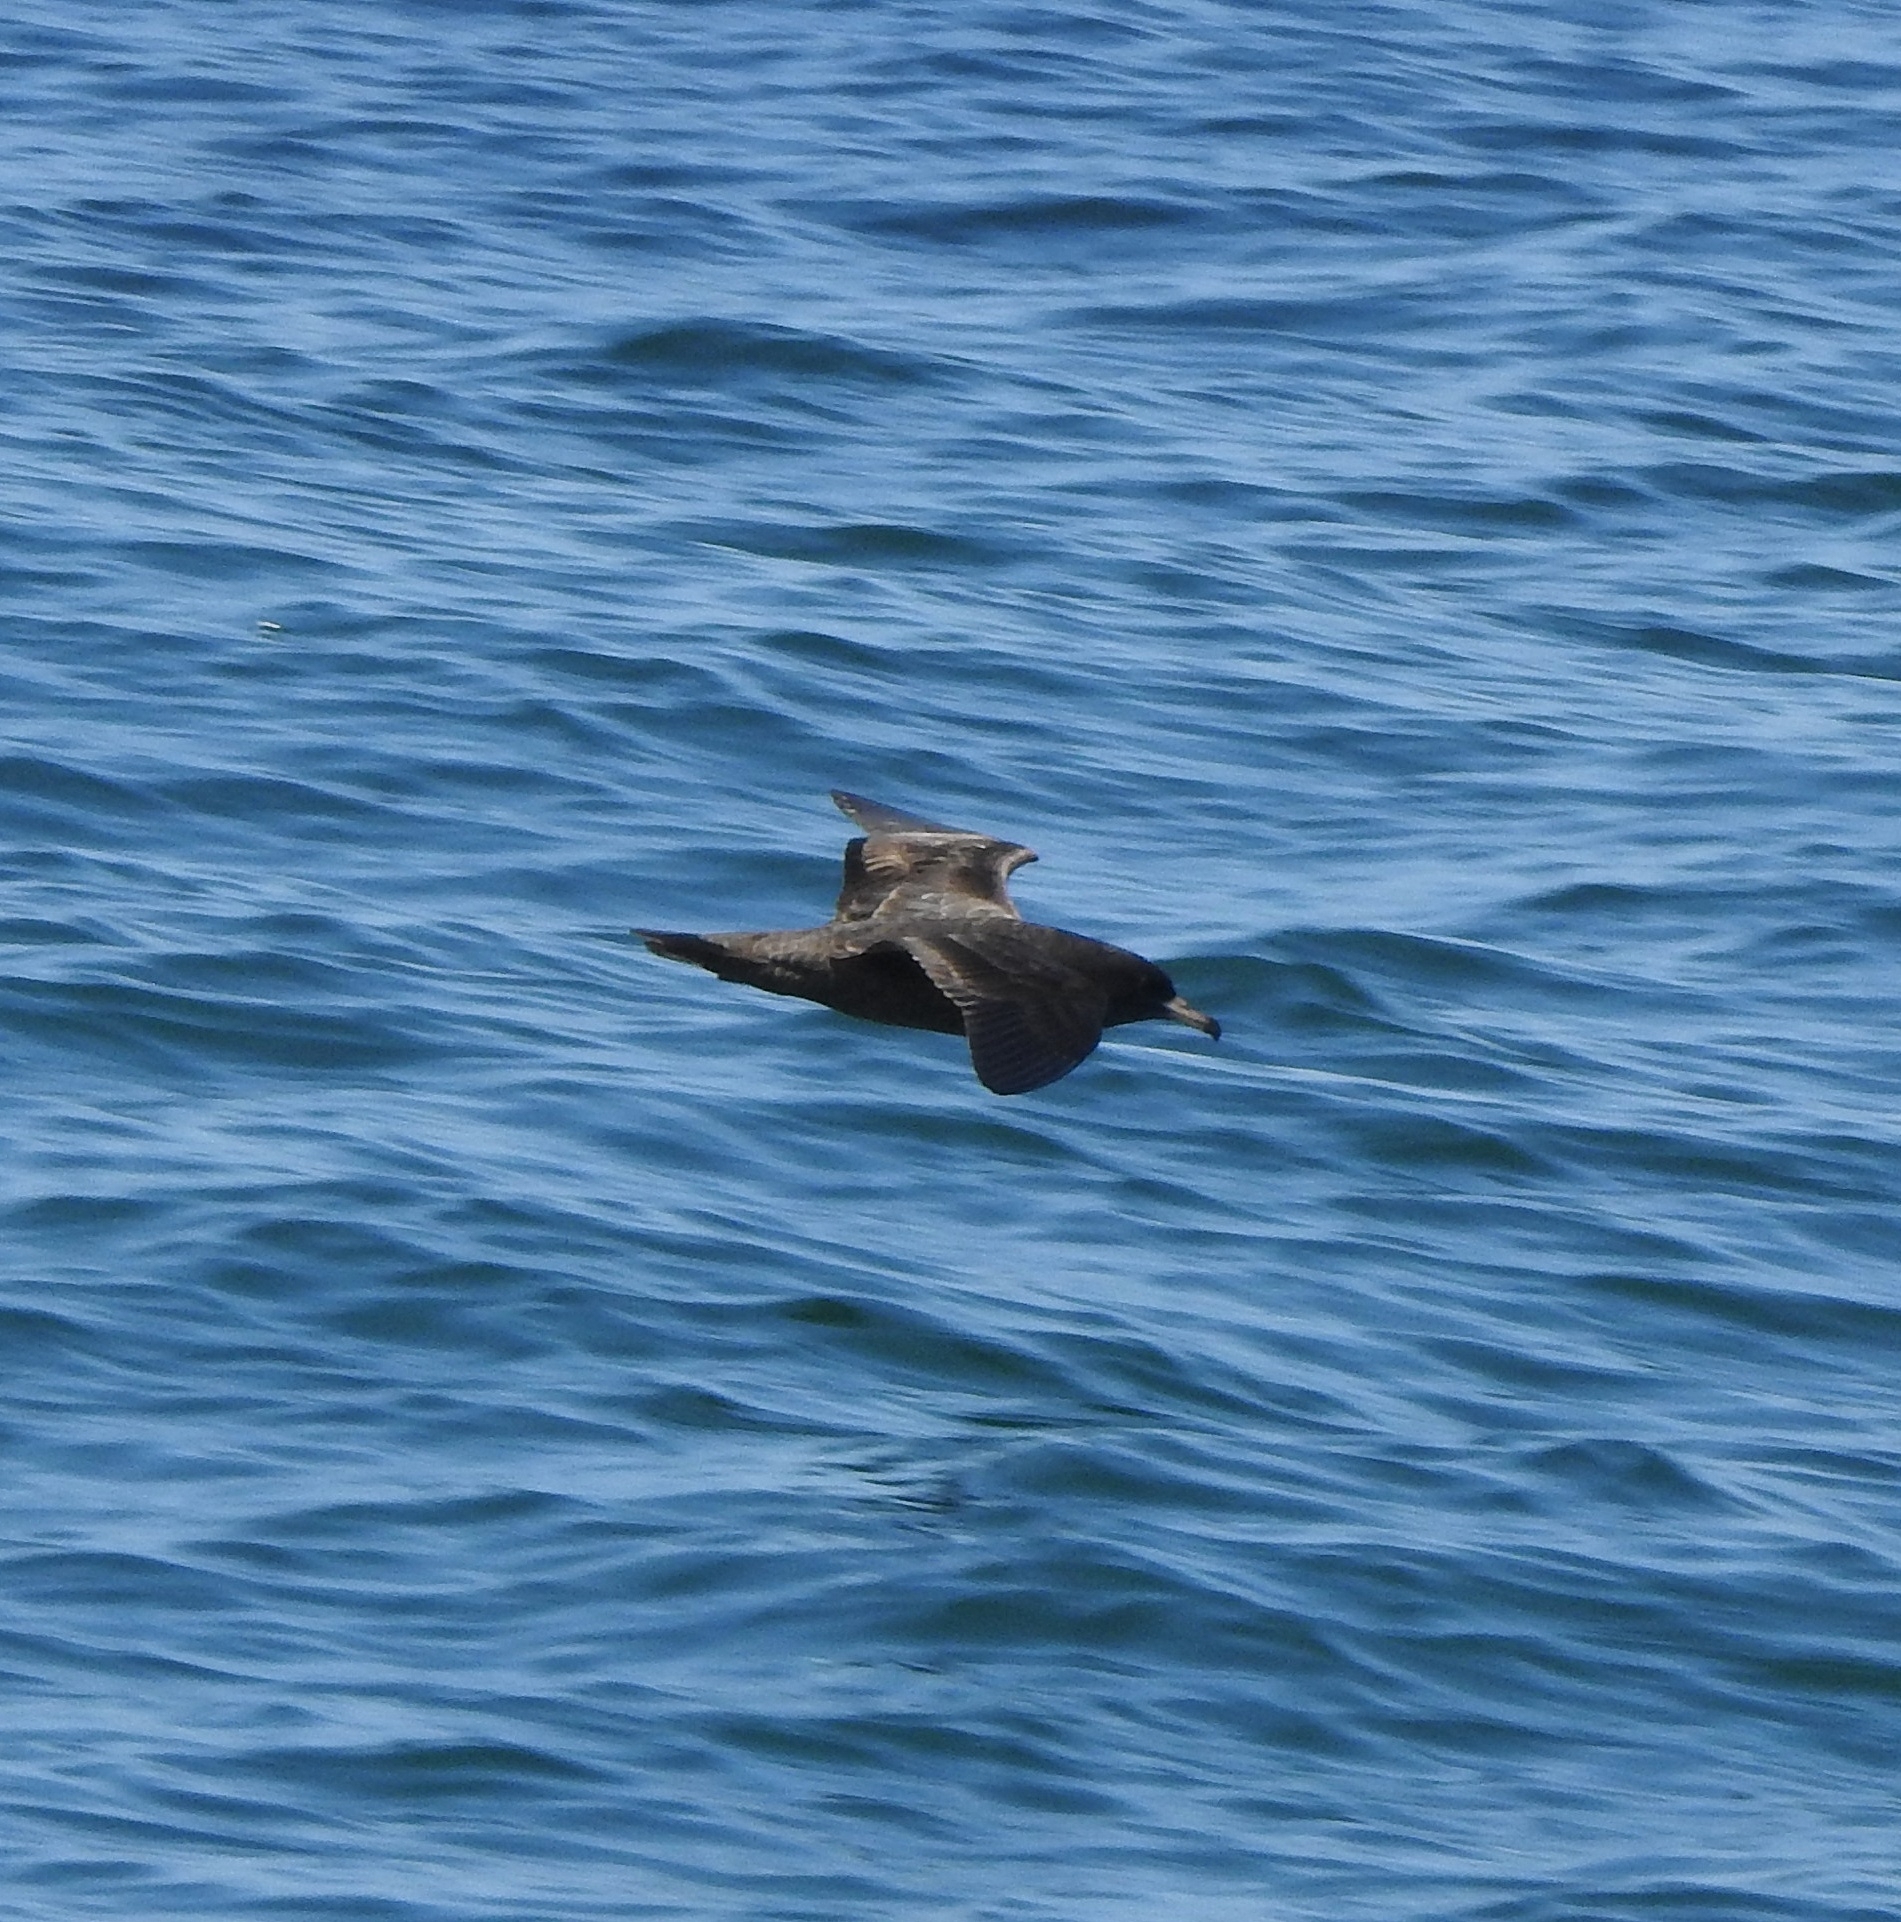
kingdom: Animalia
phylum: Chordata
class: Aves
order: Procellariiformes
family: Procellariidae
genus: Puffinus
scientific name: Puffinus carneipes
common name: Flesh-footed shearwater
